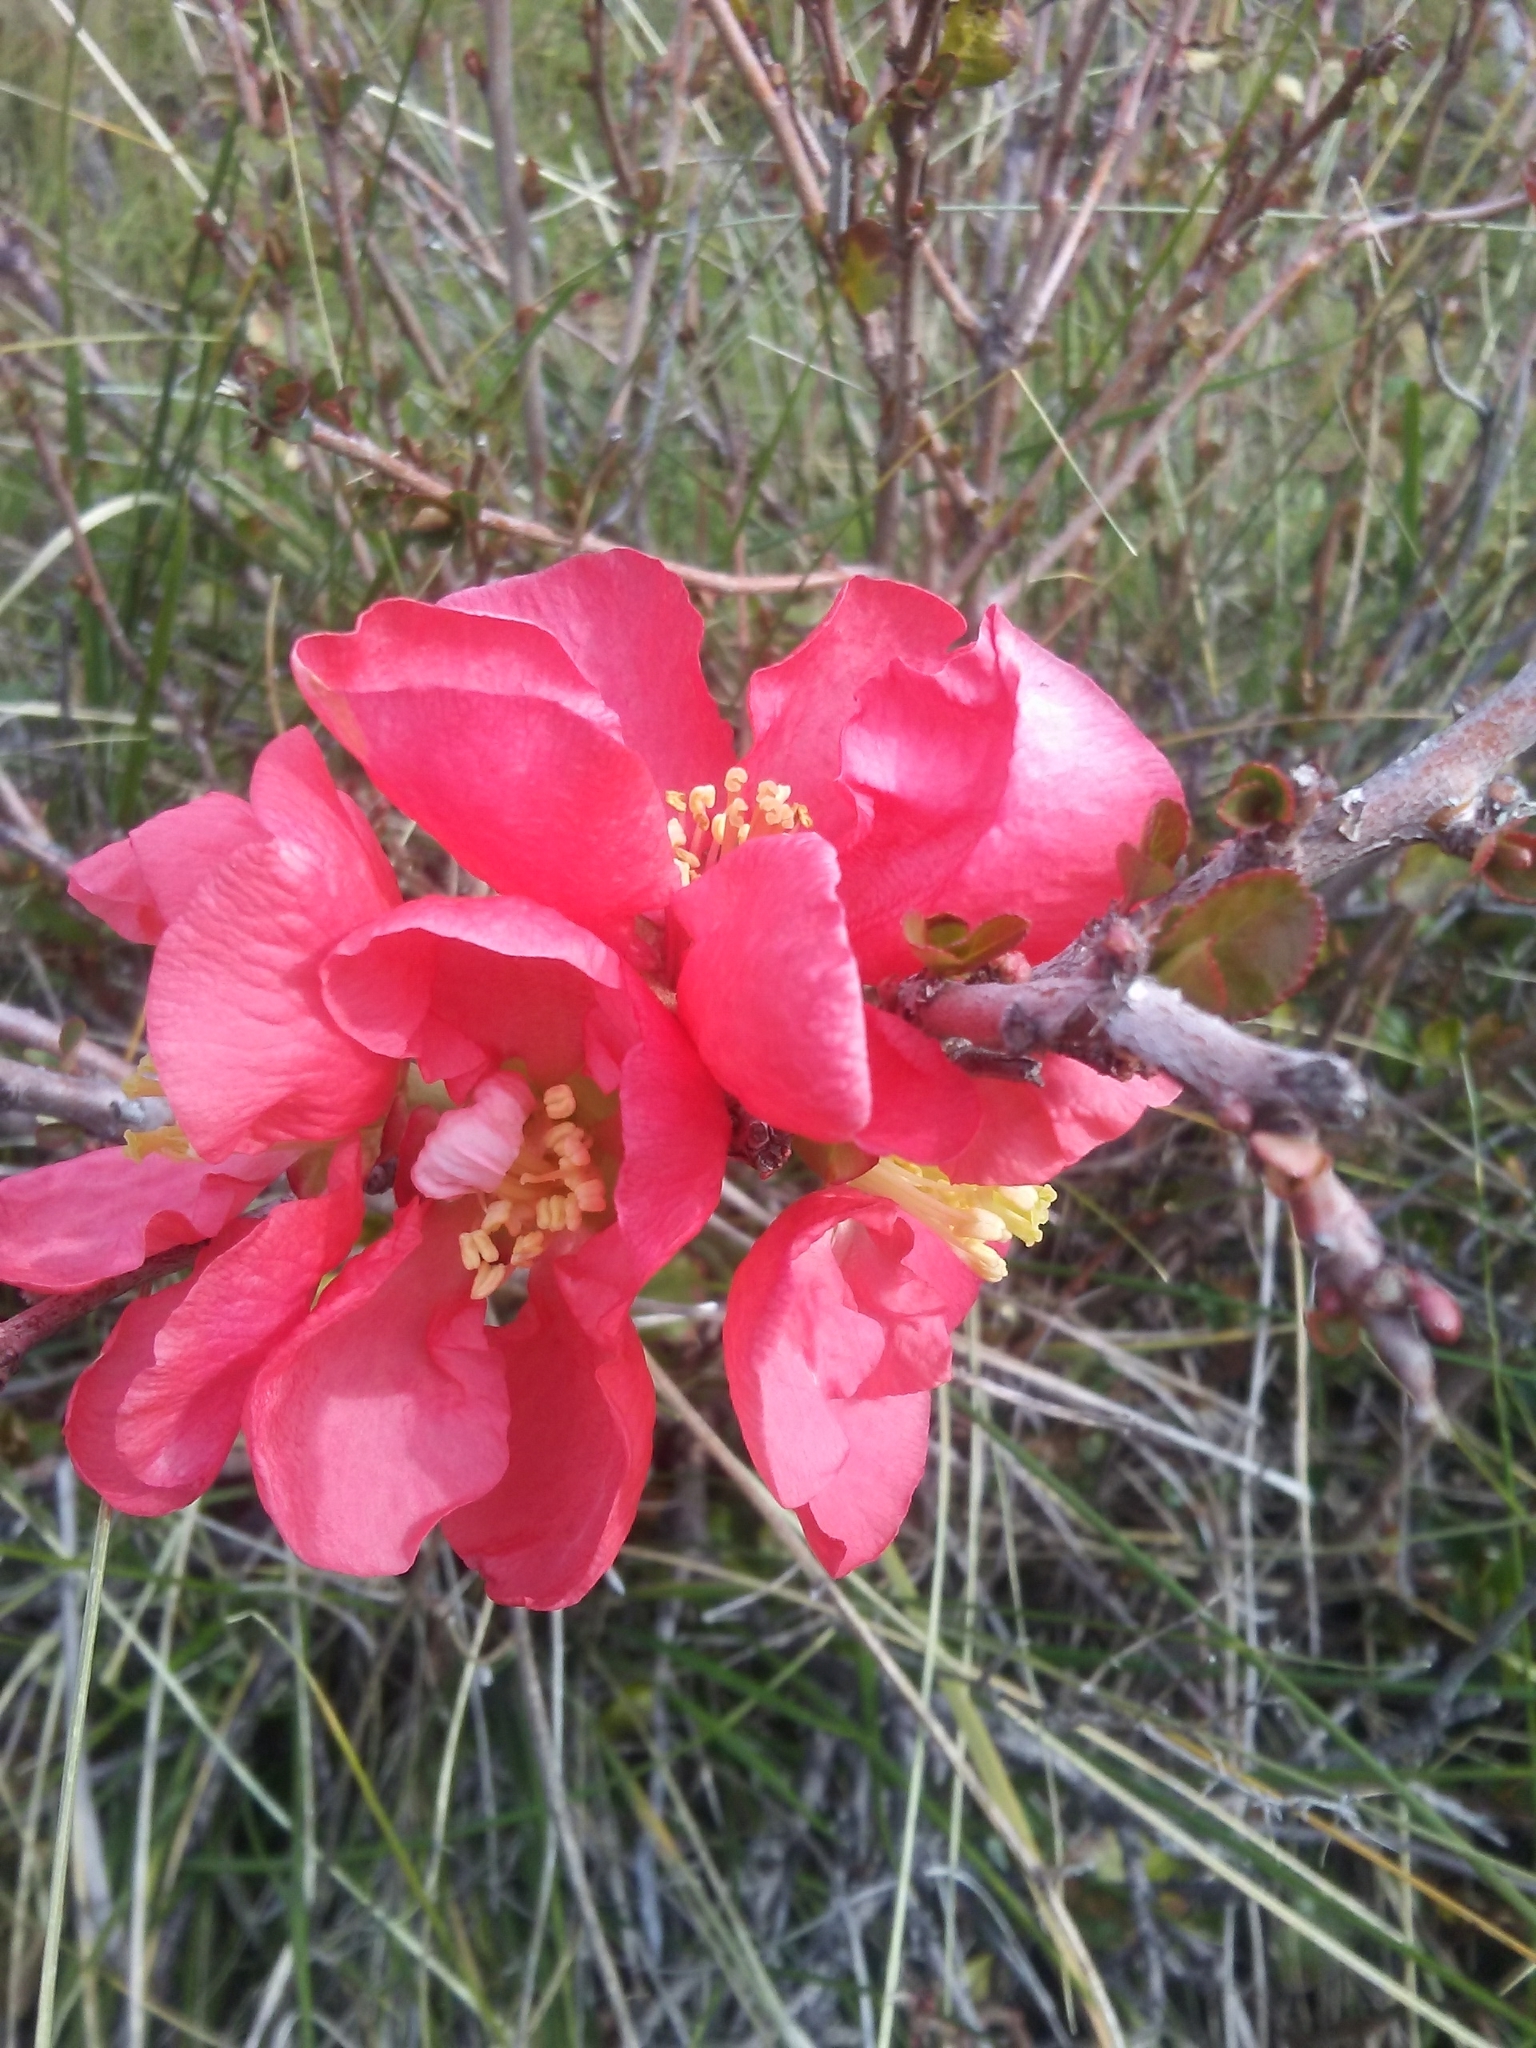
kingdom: Plantae
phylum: Tracheophyta
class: Magnoliopsida
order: Rosales
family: Rosaceae
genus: Chaenomeles
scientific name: Chaenomeles speciosa
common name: Japanese quince
